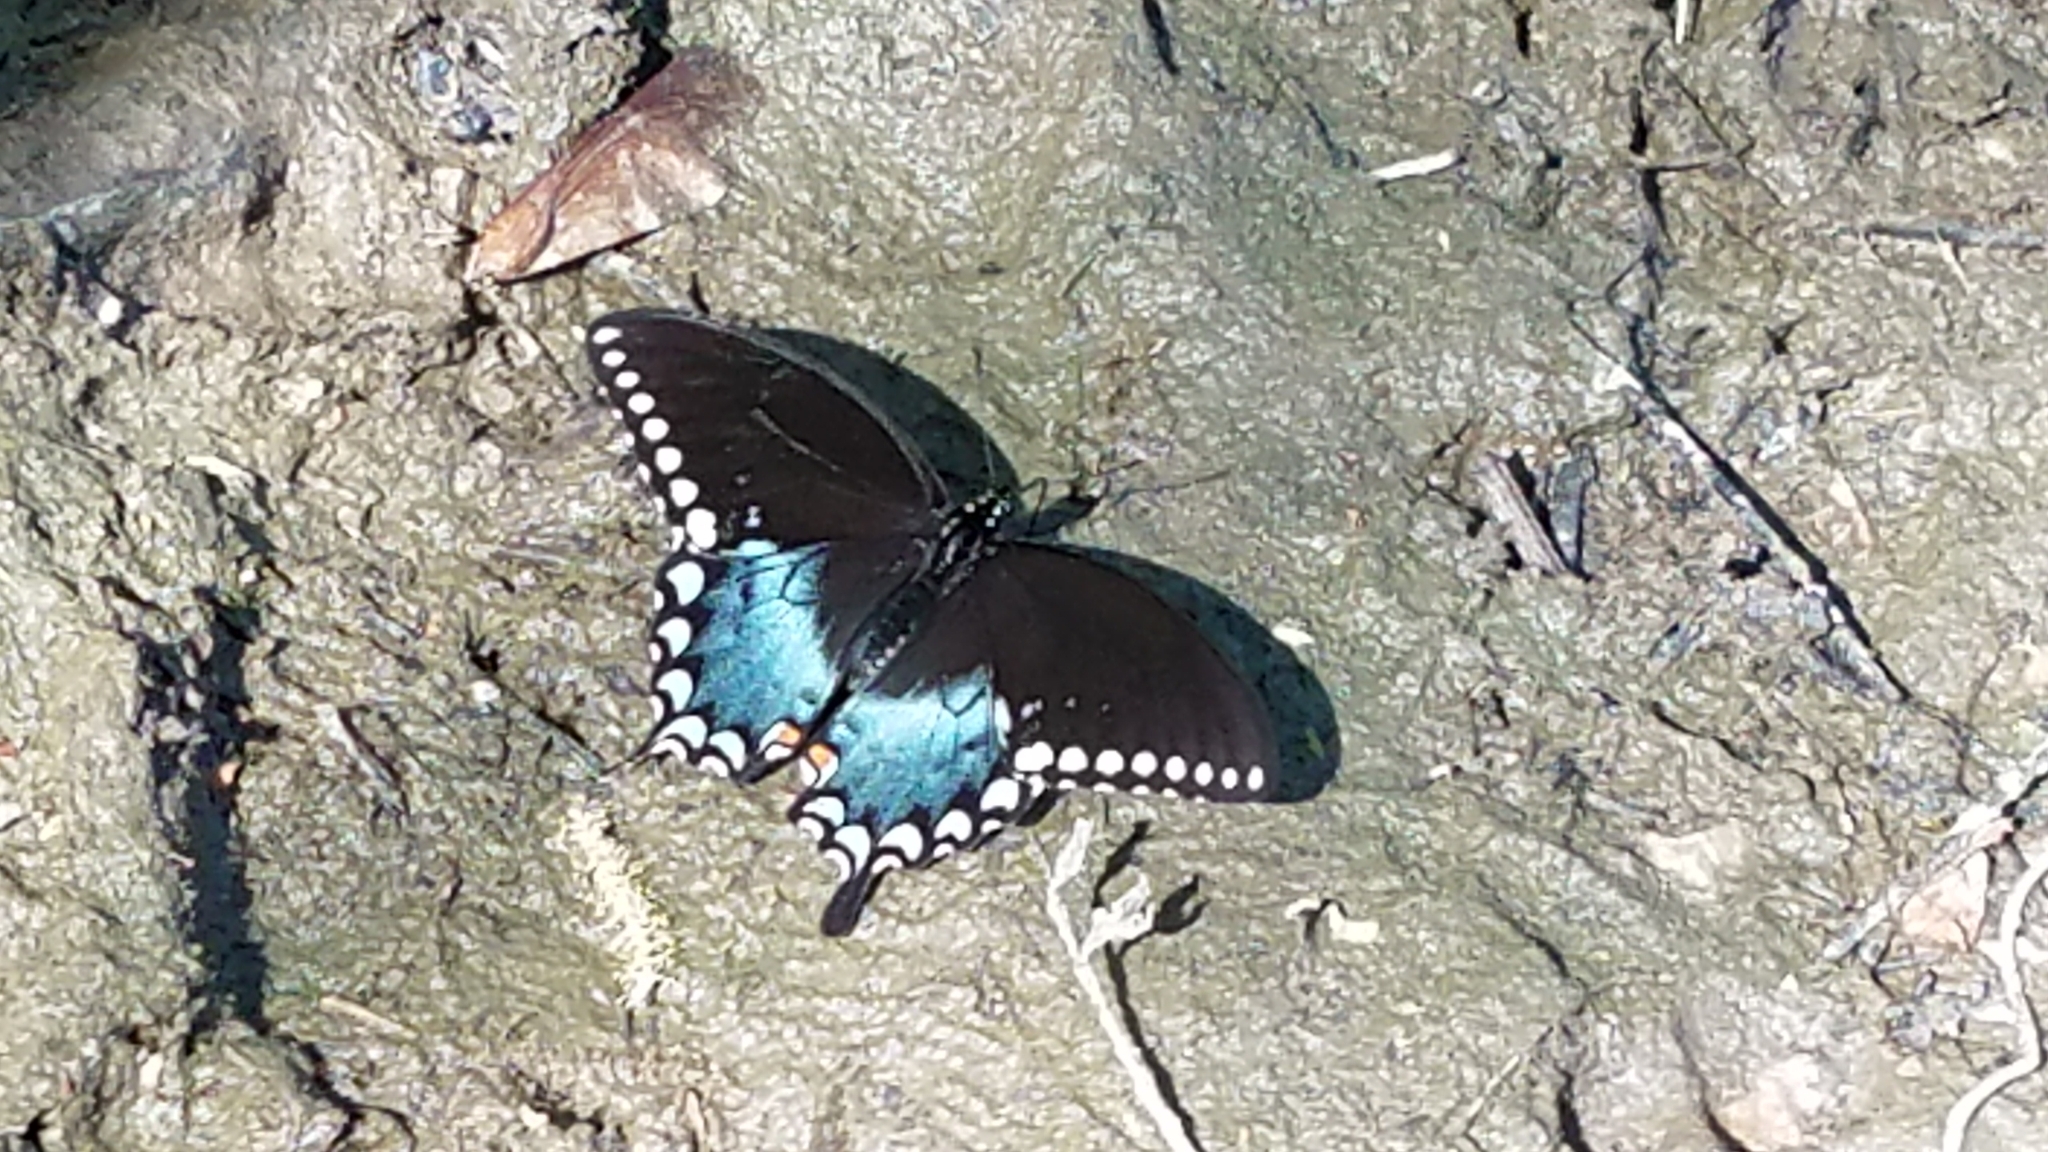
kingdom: Animalia
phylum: Arthropoda
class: Insecta
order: Lepidoptera
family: Papilionidae
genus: Papilio
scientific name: Papilio troilus
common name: Spicebush swallowtail
